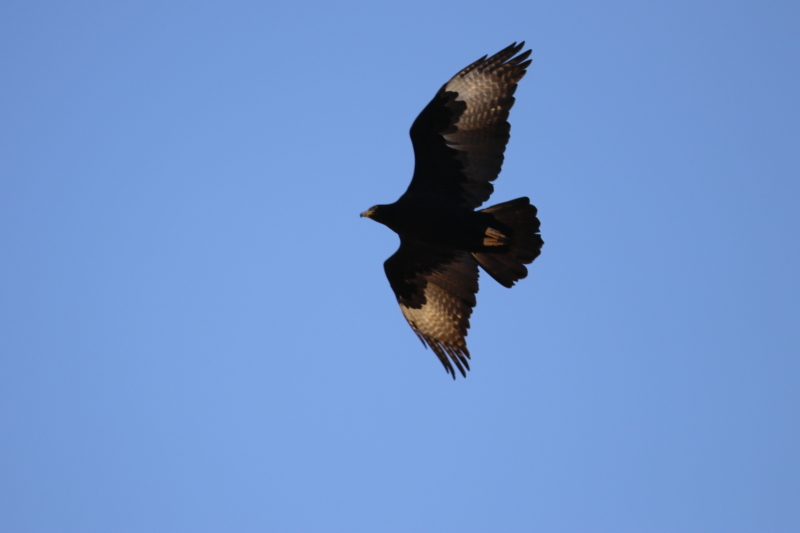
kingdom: Animalia
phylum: Chordata
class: Aves
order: Accipitriformes
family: Accipitridae
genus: Aquila
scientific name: Aquila verreauxii
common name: Verreaux's eagle
